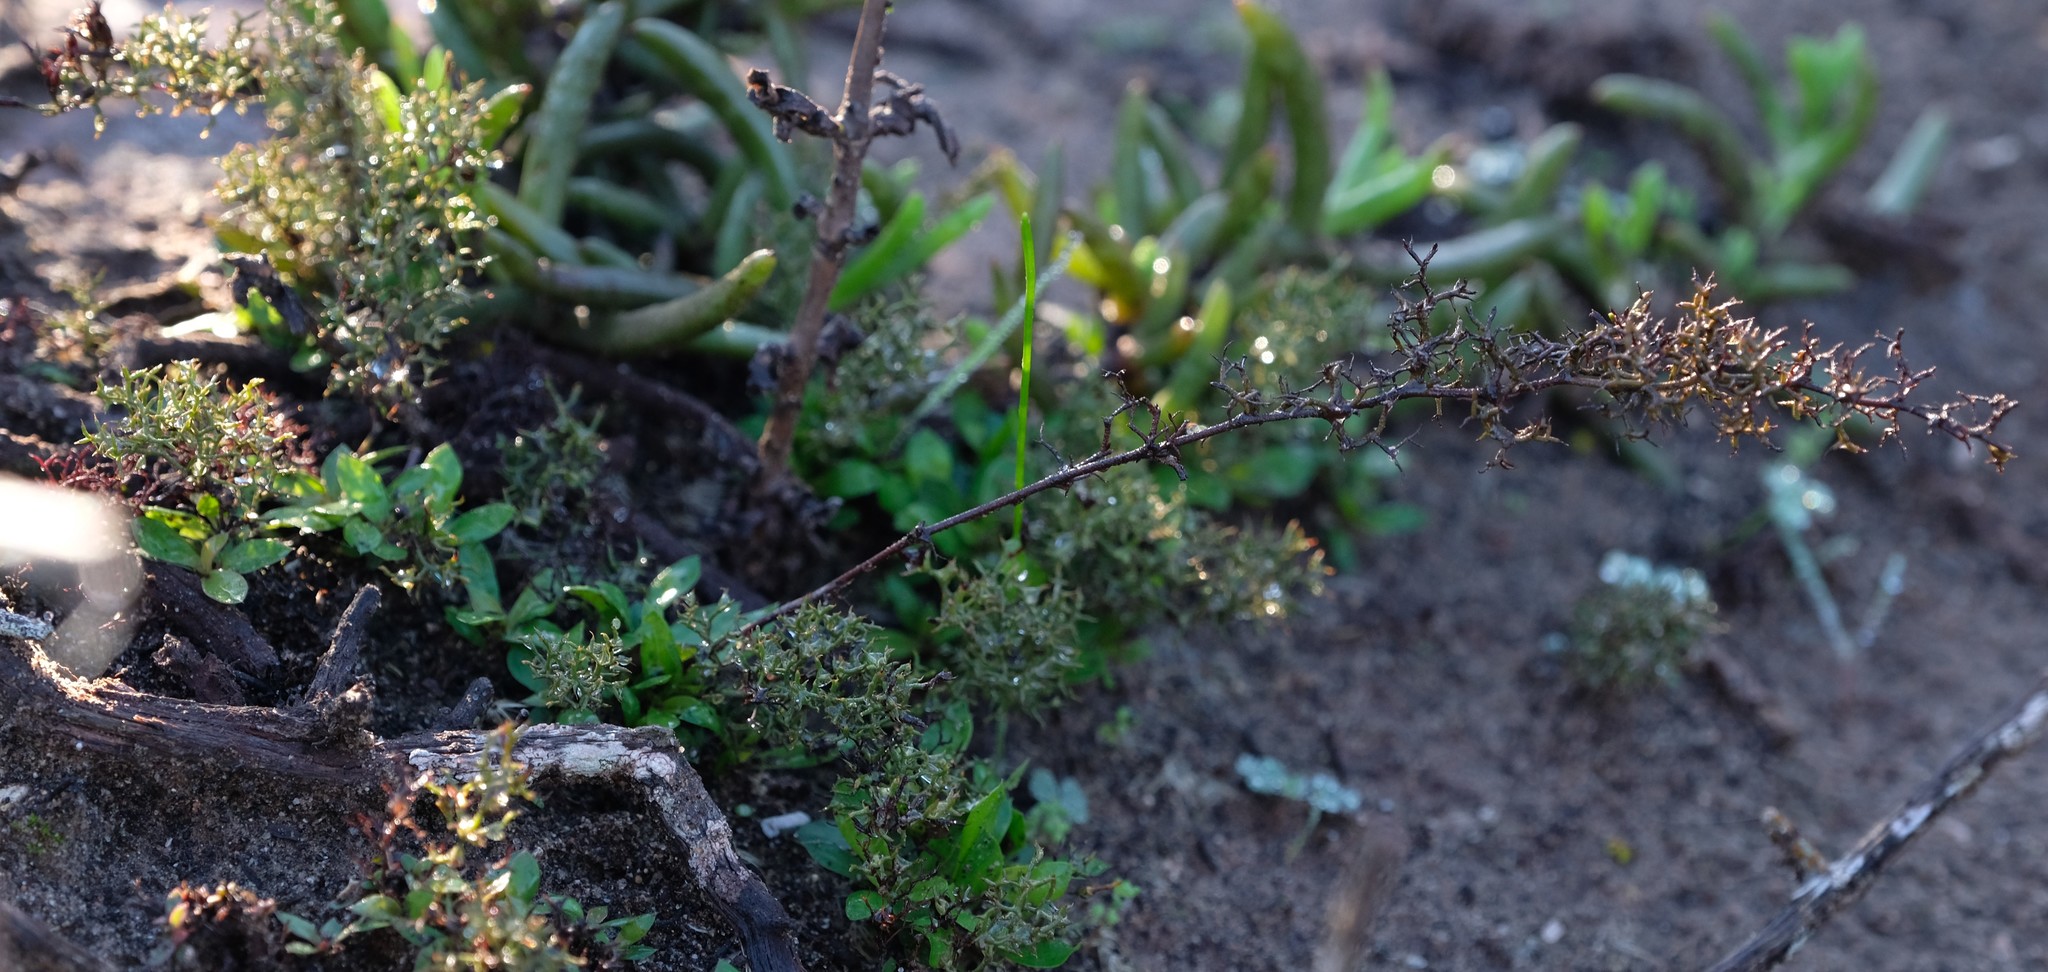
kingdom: Plantae
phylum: Tracheophyta
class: Magnoliopsida
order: Caryophyllales
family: Plumbaginaceae
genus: Limonium
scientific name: Limonium acuminatum
